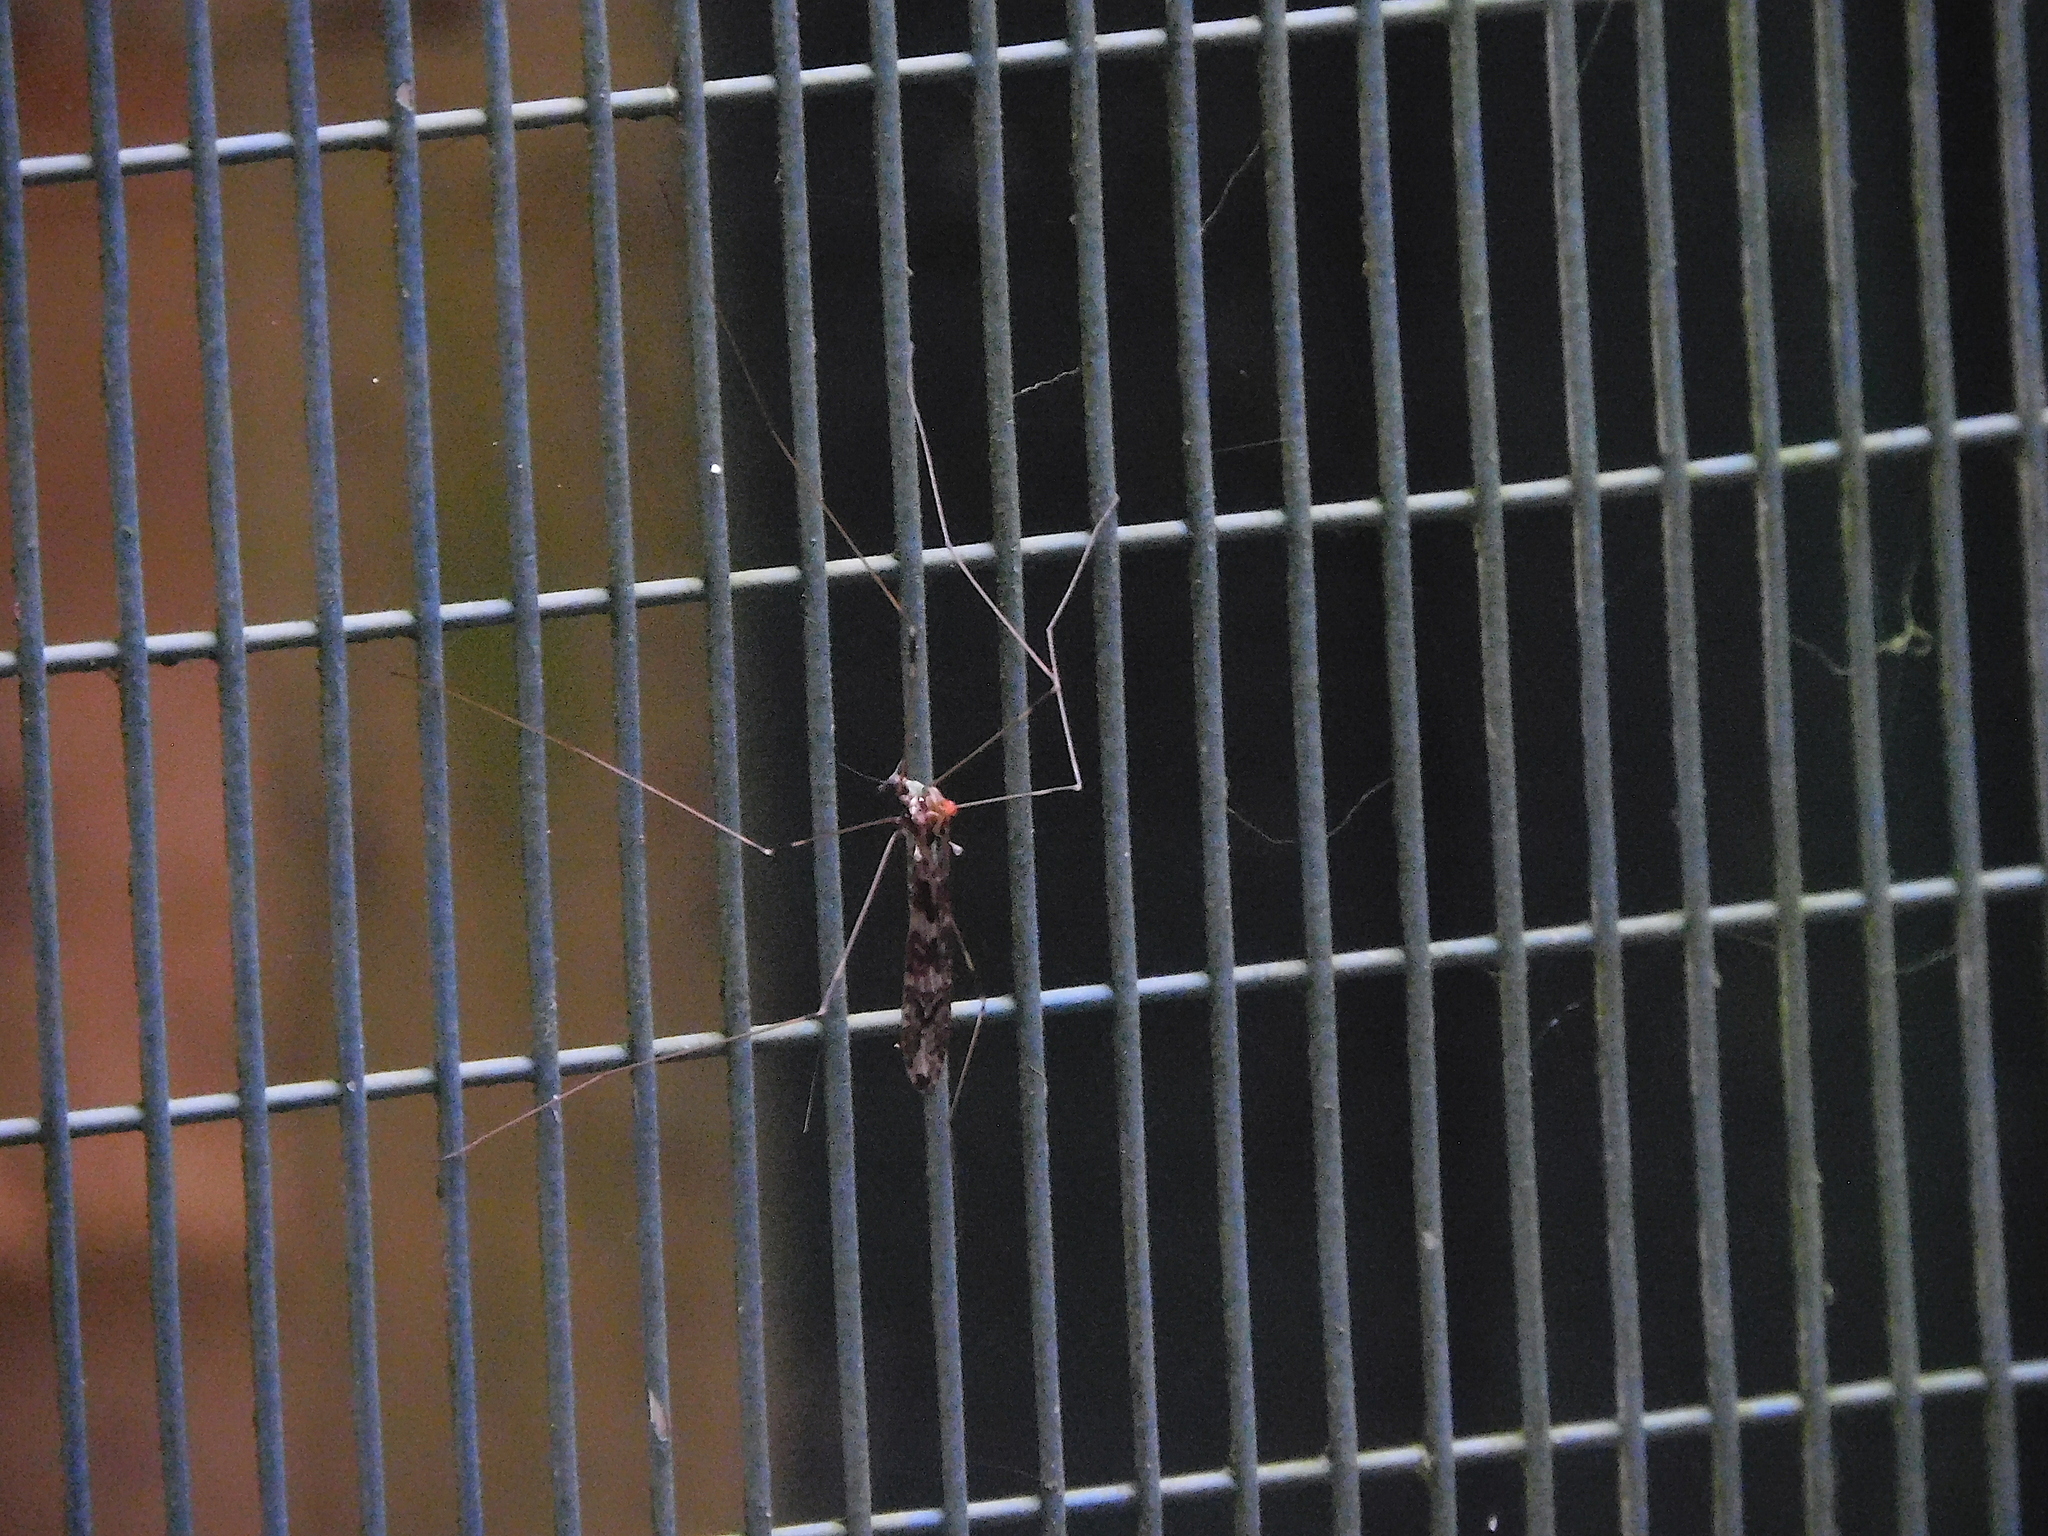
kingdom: Animalia
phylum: Arthropoda
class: Insecta
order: Diptera
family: Limoniidae
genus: Discobola
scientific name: Discobola dohrni
